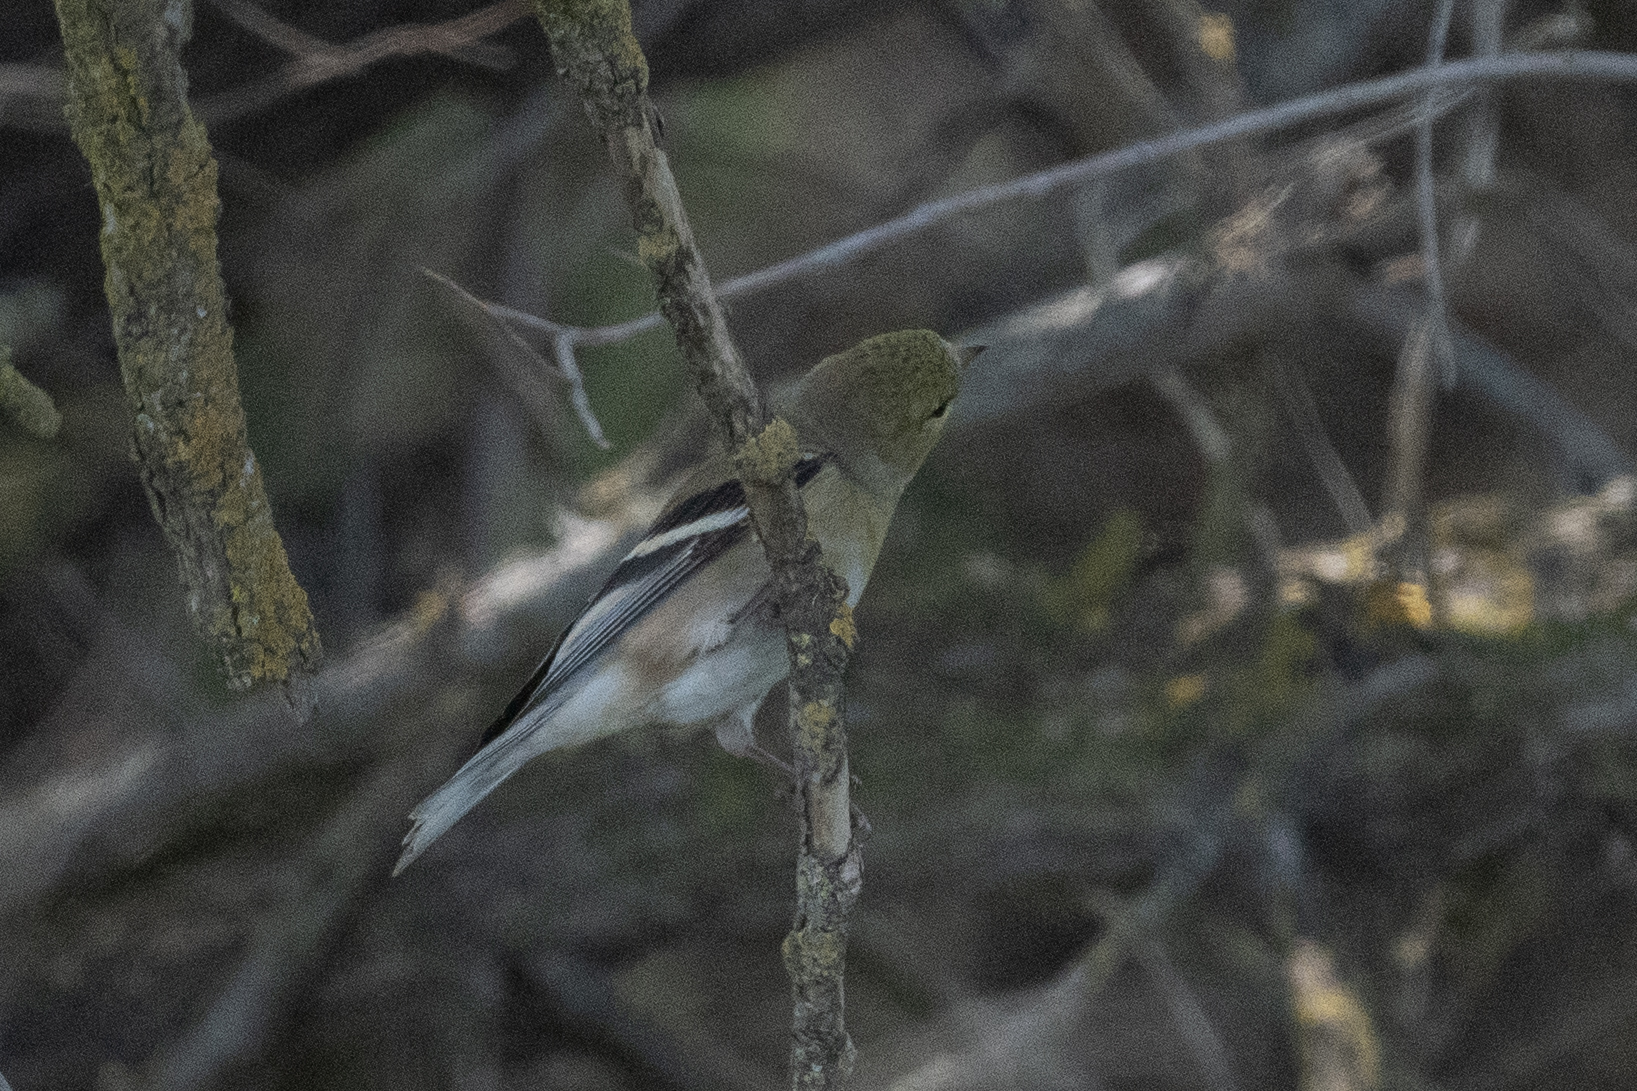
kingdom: Animalia
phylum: Chordata
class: Aves
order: Passeriformes
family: Fringillidae
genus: Spinus
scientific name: Spinus tristis
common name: American goldfinch
